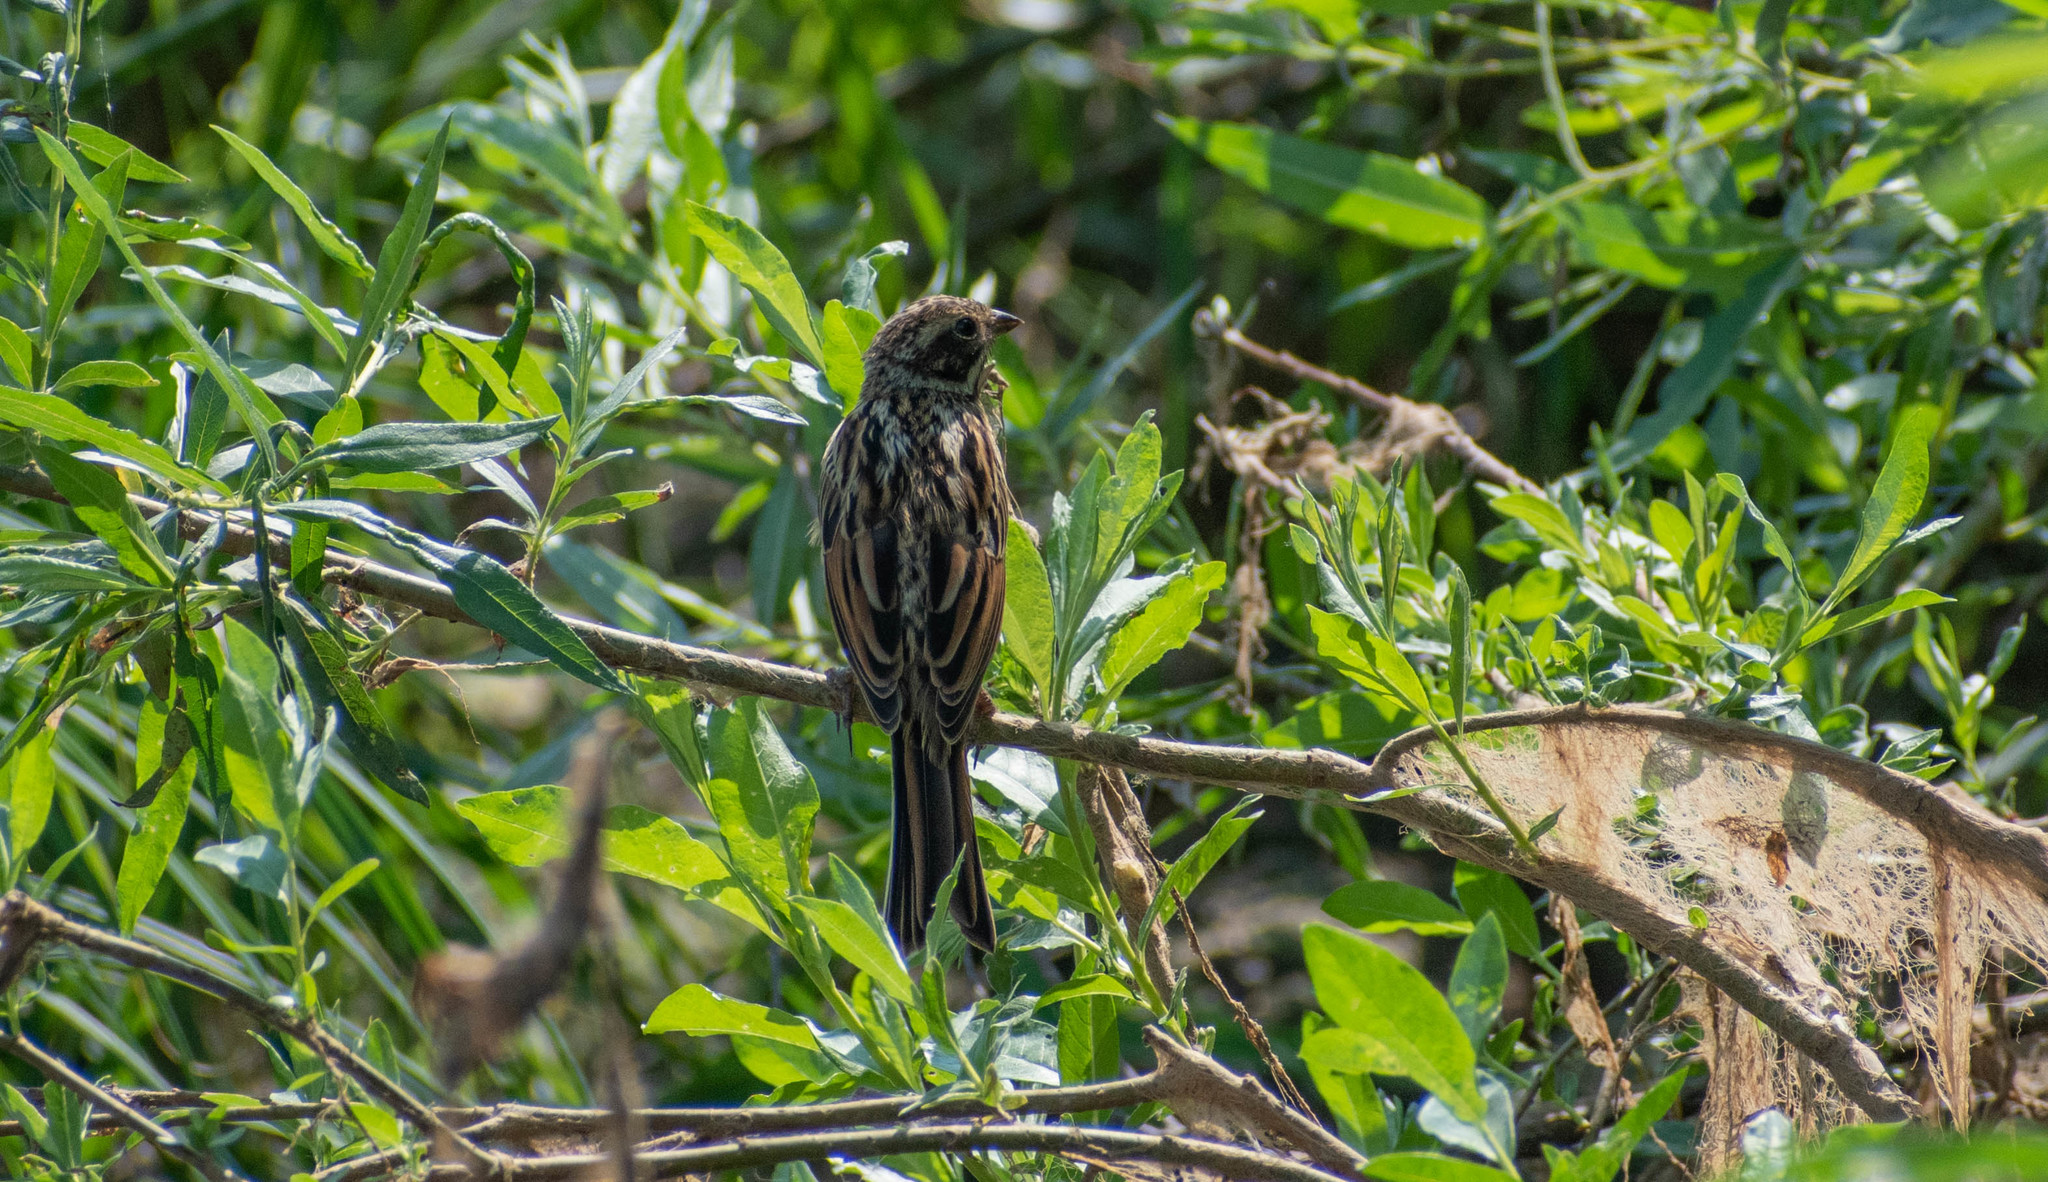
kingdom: Animalia
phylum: Chordata
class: Aves
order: Passeriformes
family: Emberizidae
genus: Emberiza
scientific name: Emberiza schoeniclus
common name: Reed bunting
